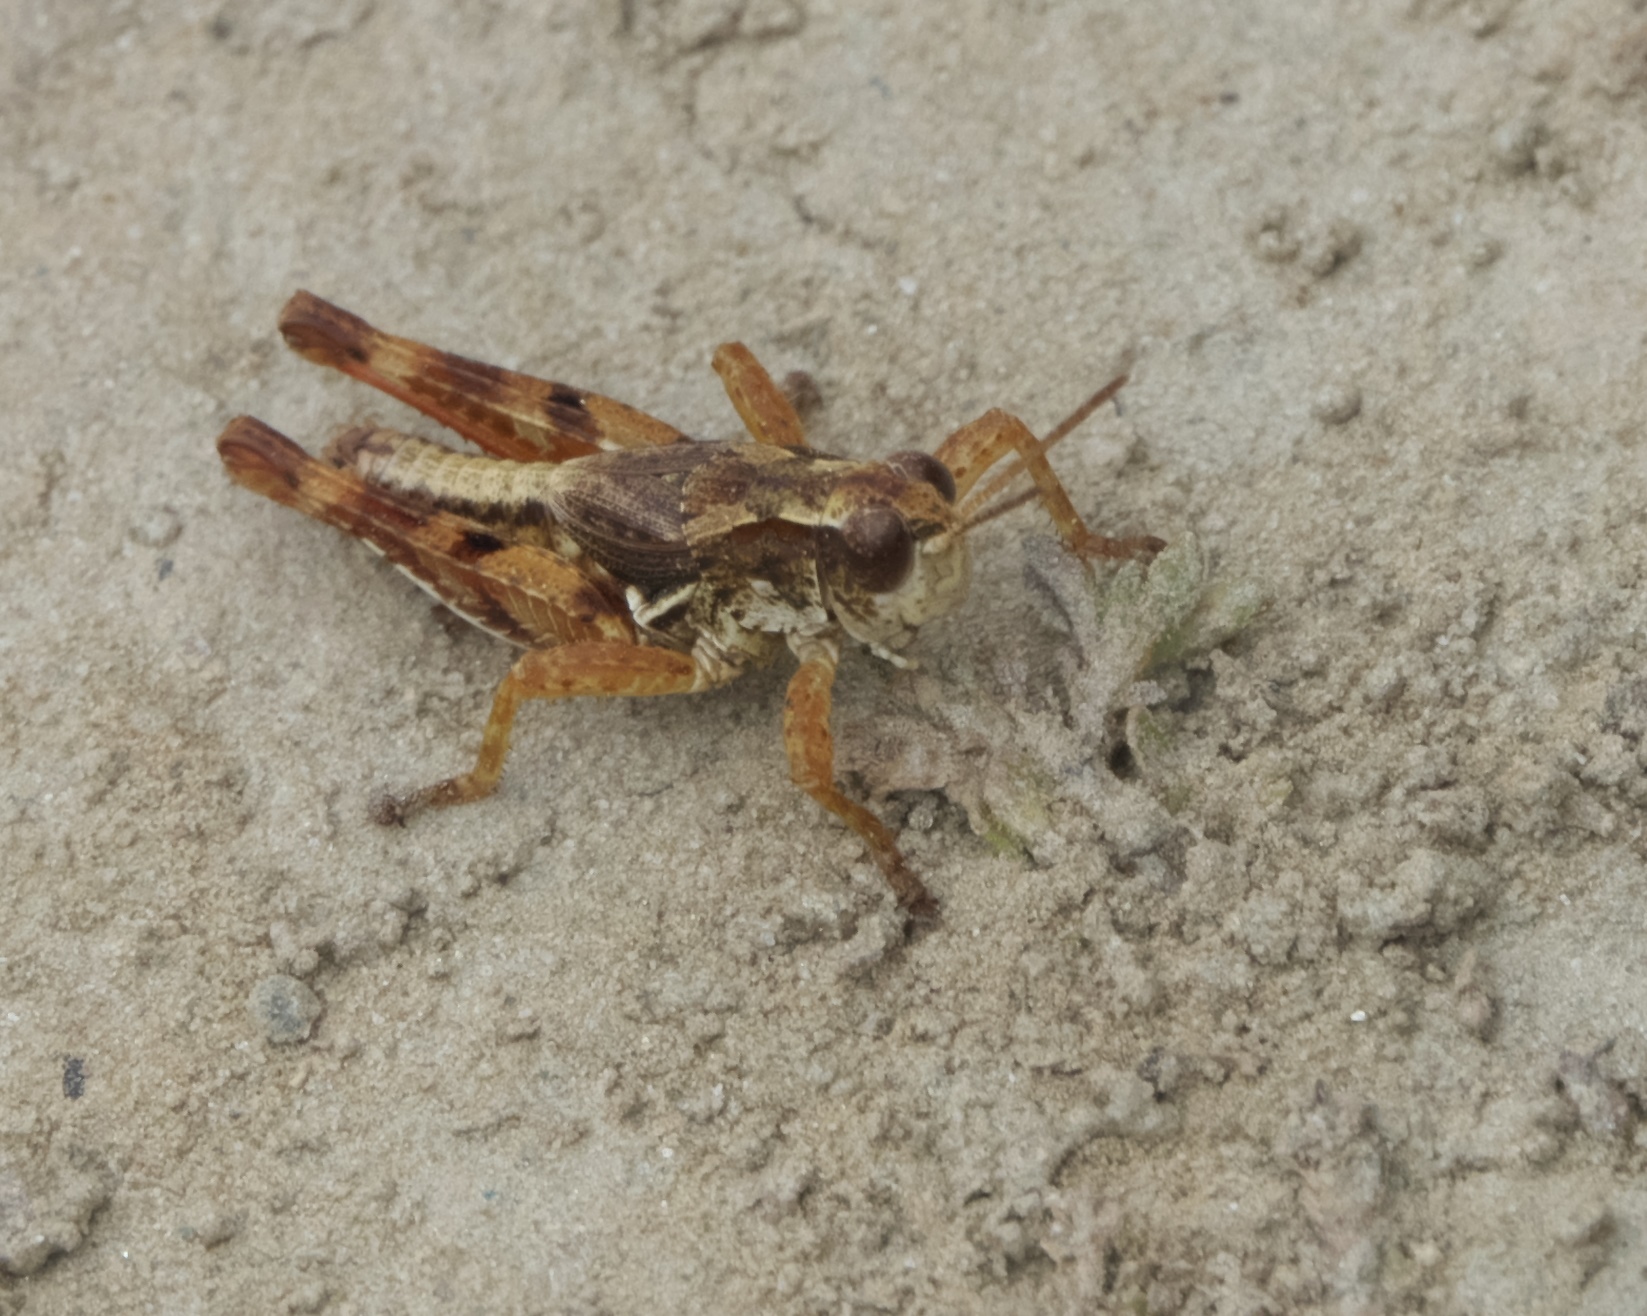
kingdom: Animalia
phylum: Arthropoda
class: Insecta
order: Orthoptera
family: Acrididae
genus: Phaulacridium
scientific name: Phaulacridium marginale
